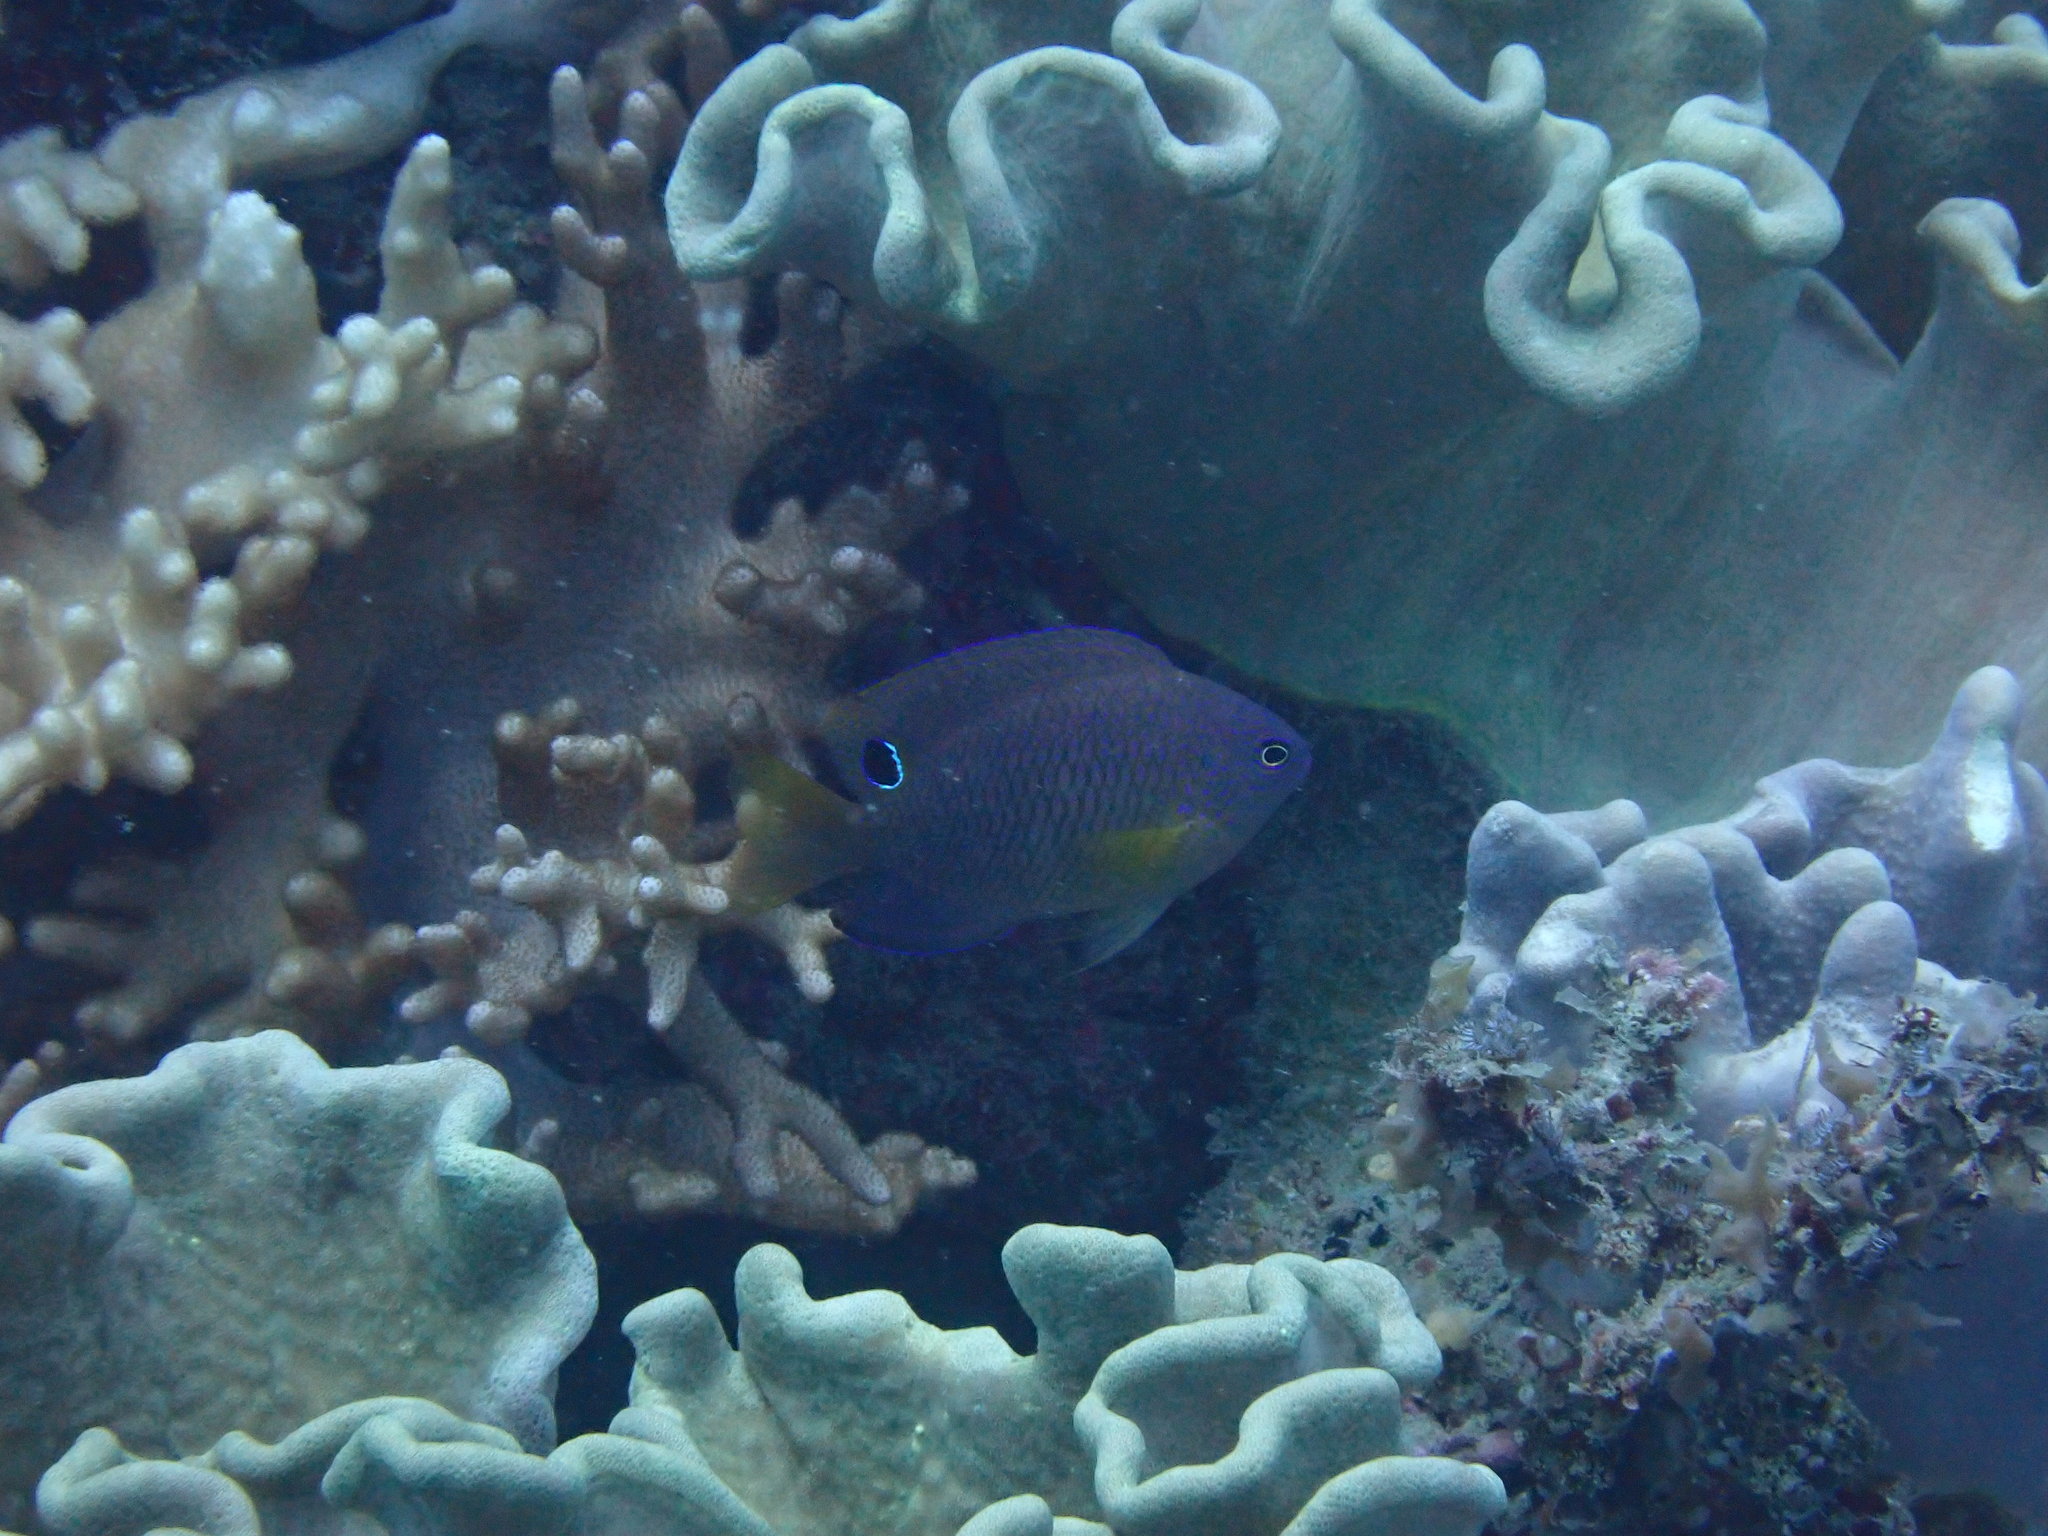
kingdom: Animalia
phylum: Chordata
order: Perciformes
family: Pomacentridae
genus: Pomacentrus
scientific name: Pomacentrus vaiuli
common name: Princess damsel
